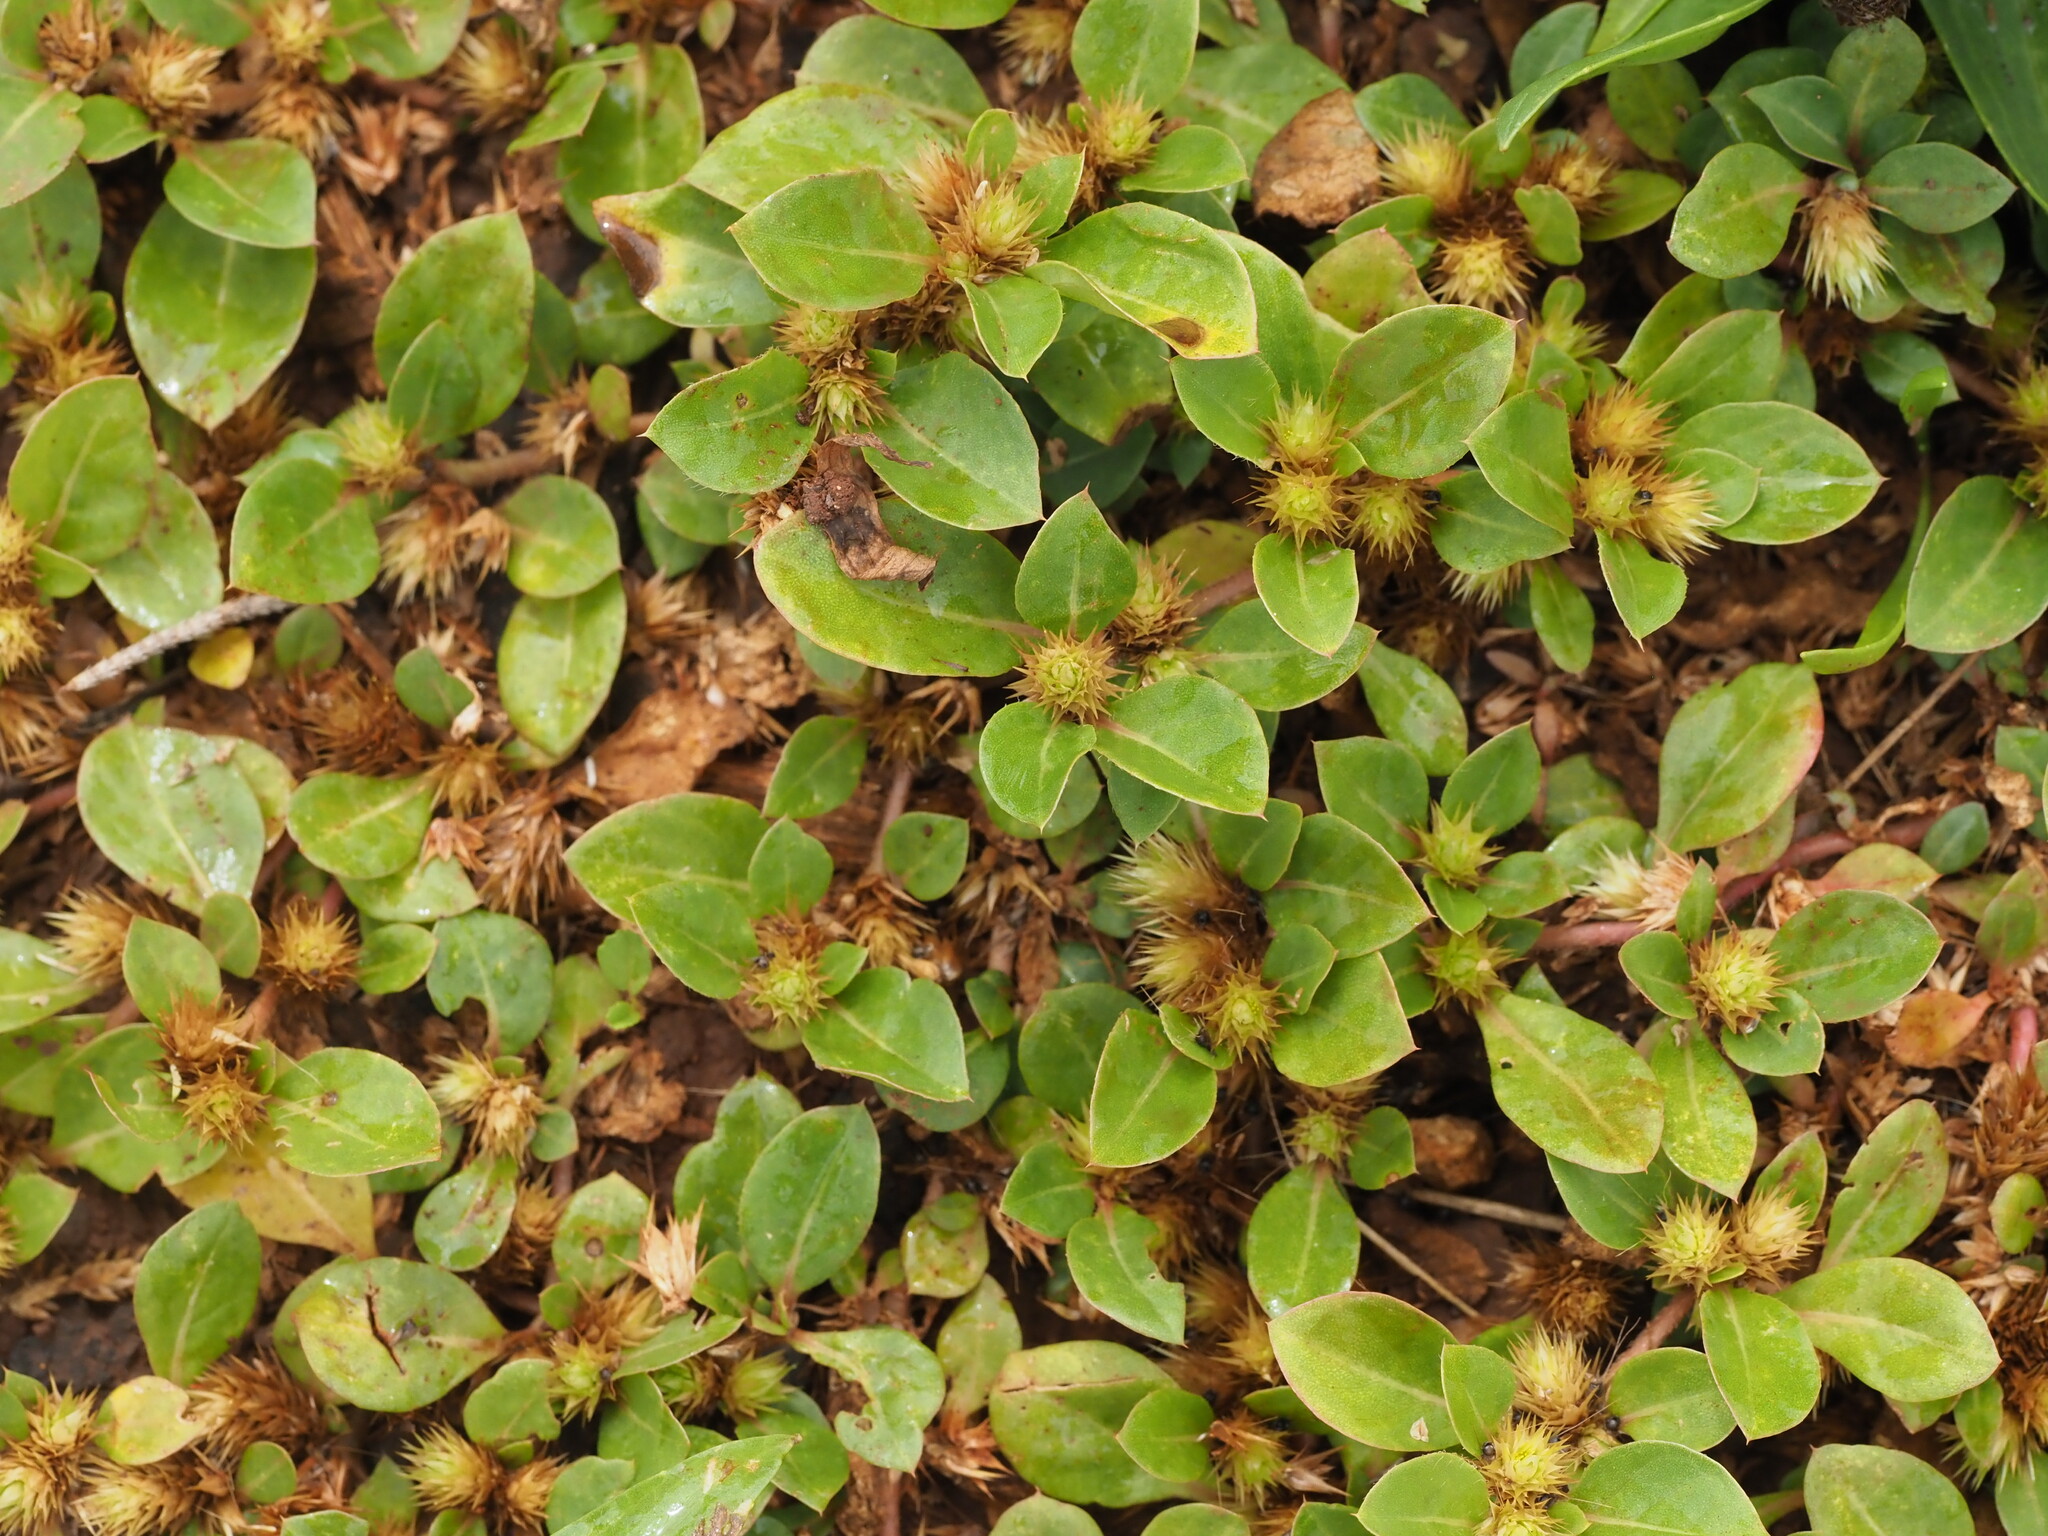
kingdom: Plantae
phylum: Tracheophyta
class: Magnoliopsida
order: Caryophyllales
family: Amaranthaceae
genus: Alternanthera
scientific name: Alternanthera pungens
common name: Khakiweed
